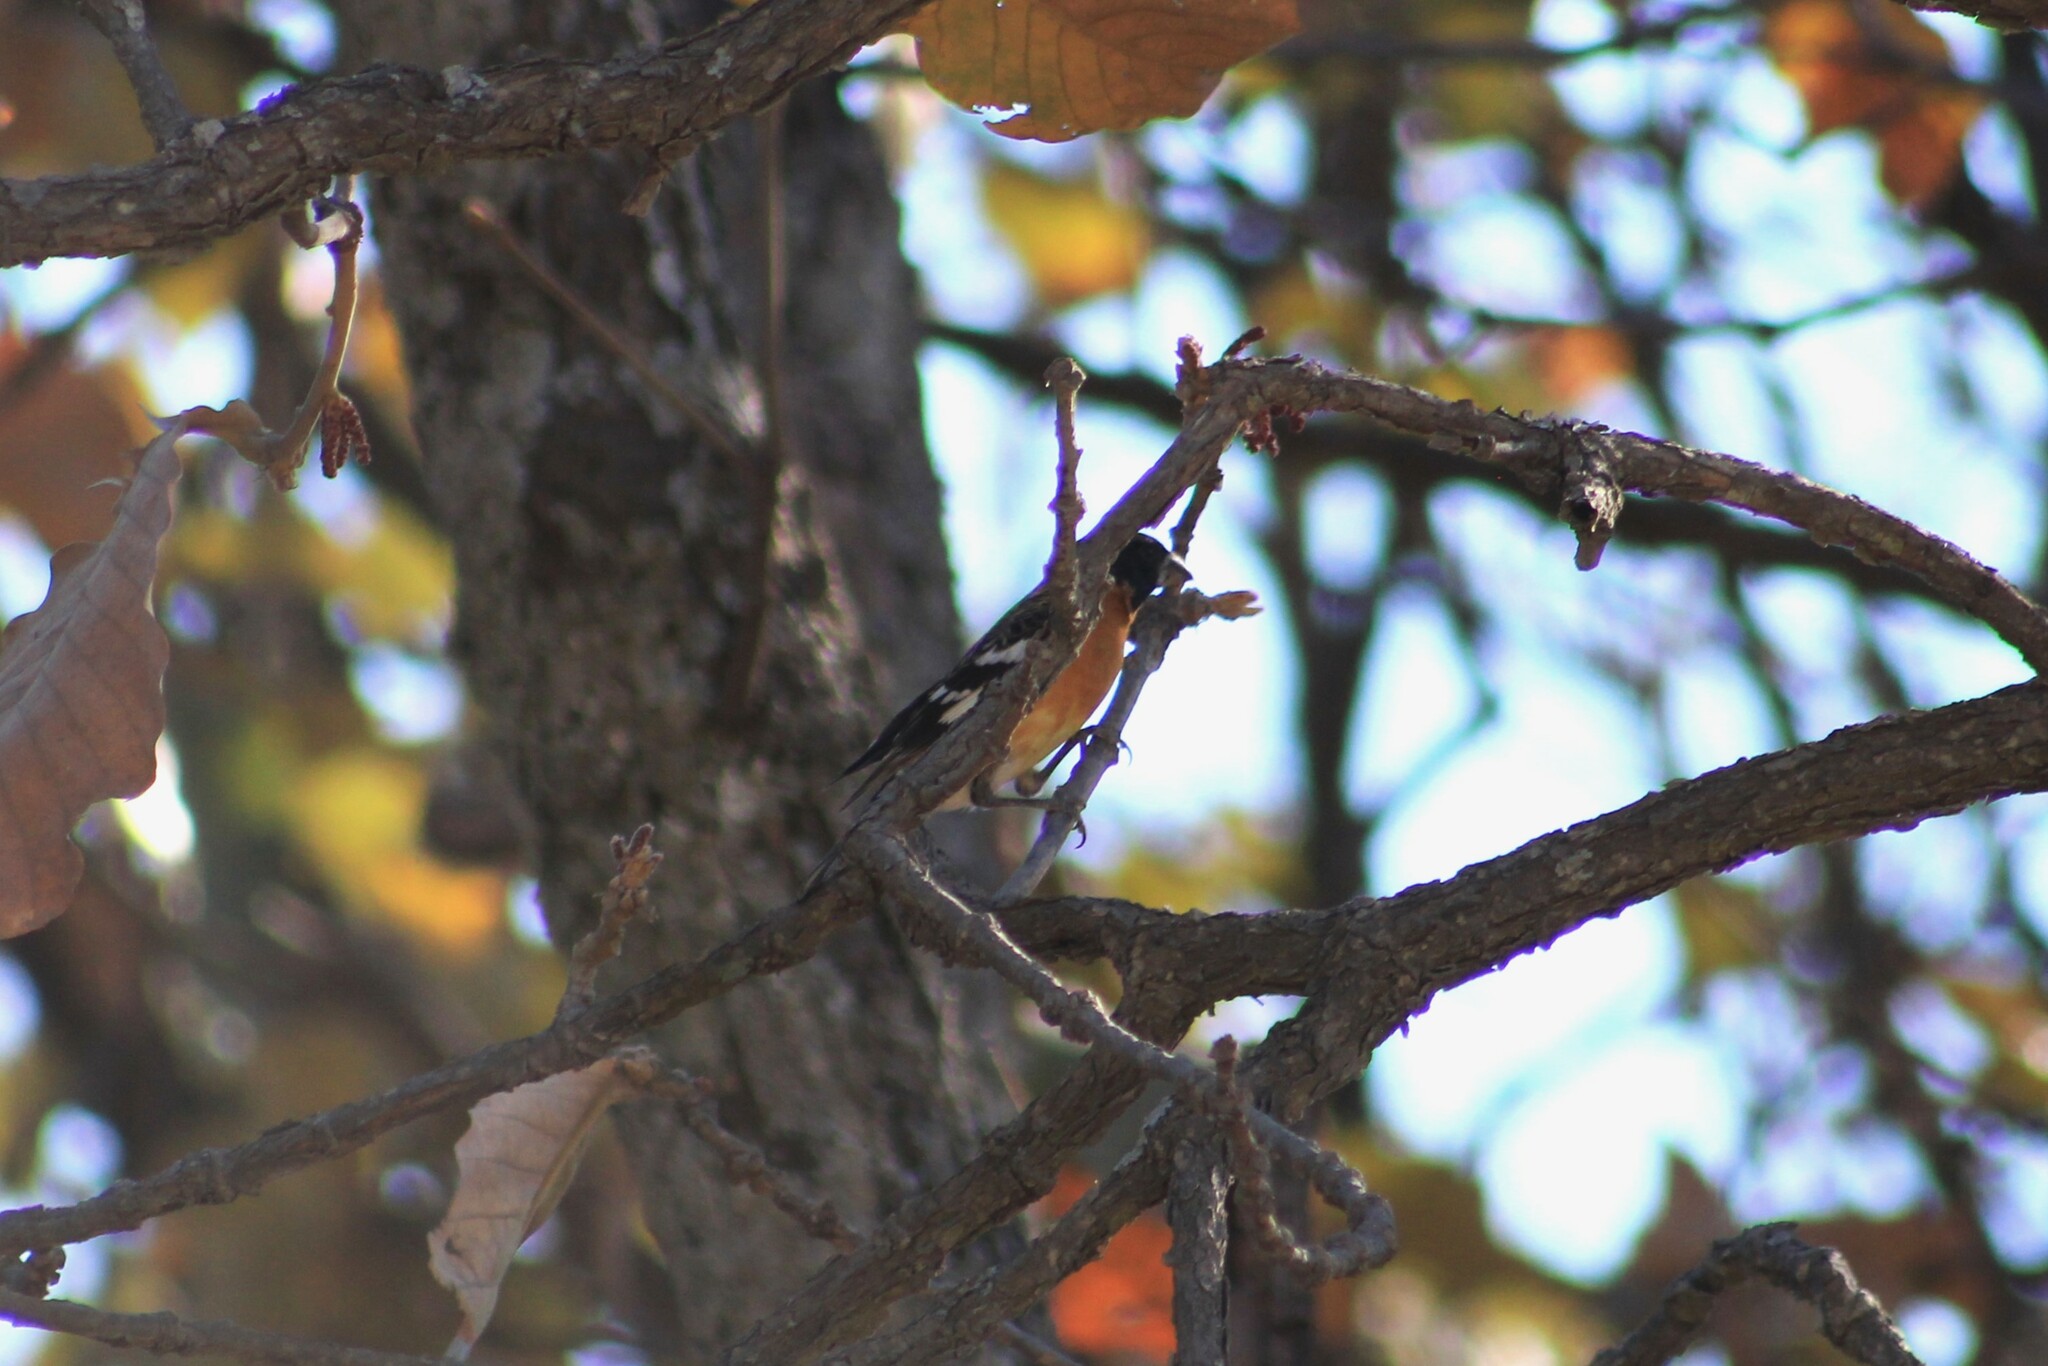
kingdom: Animalia
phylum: Chordata
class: Aves
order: Passeriformes
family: Cardinalidae
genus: Pheucticus
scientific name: Pheucticus melanocephalus
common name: Black-headed grosbeak
